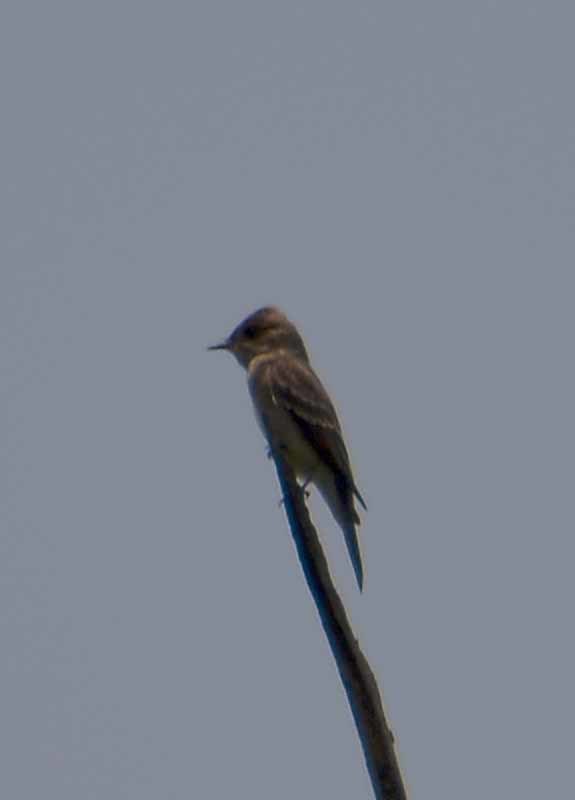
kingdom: Animalia
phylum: Chordata
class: Aves
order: Passeriformes
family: Tyrannidae
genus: Contopus
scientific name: Contopus sordidulus
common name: Western wood-pewee
